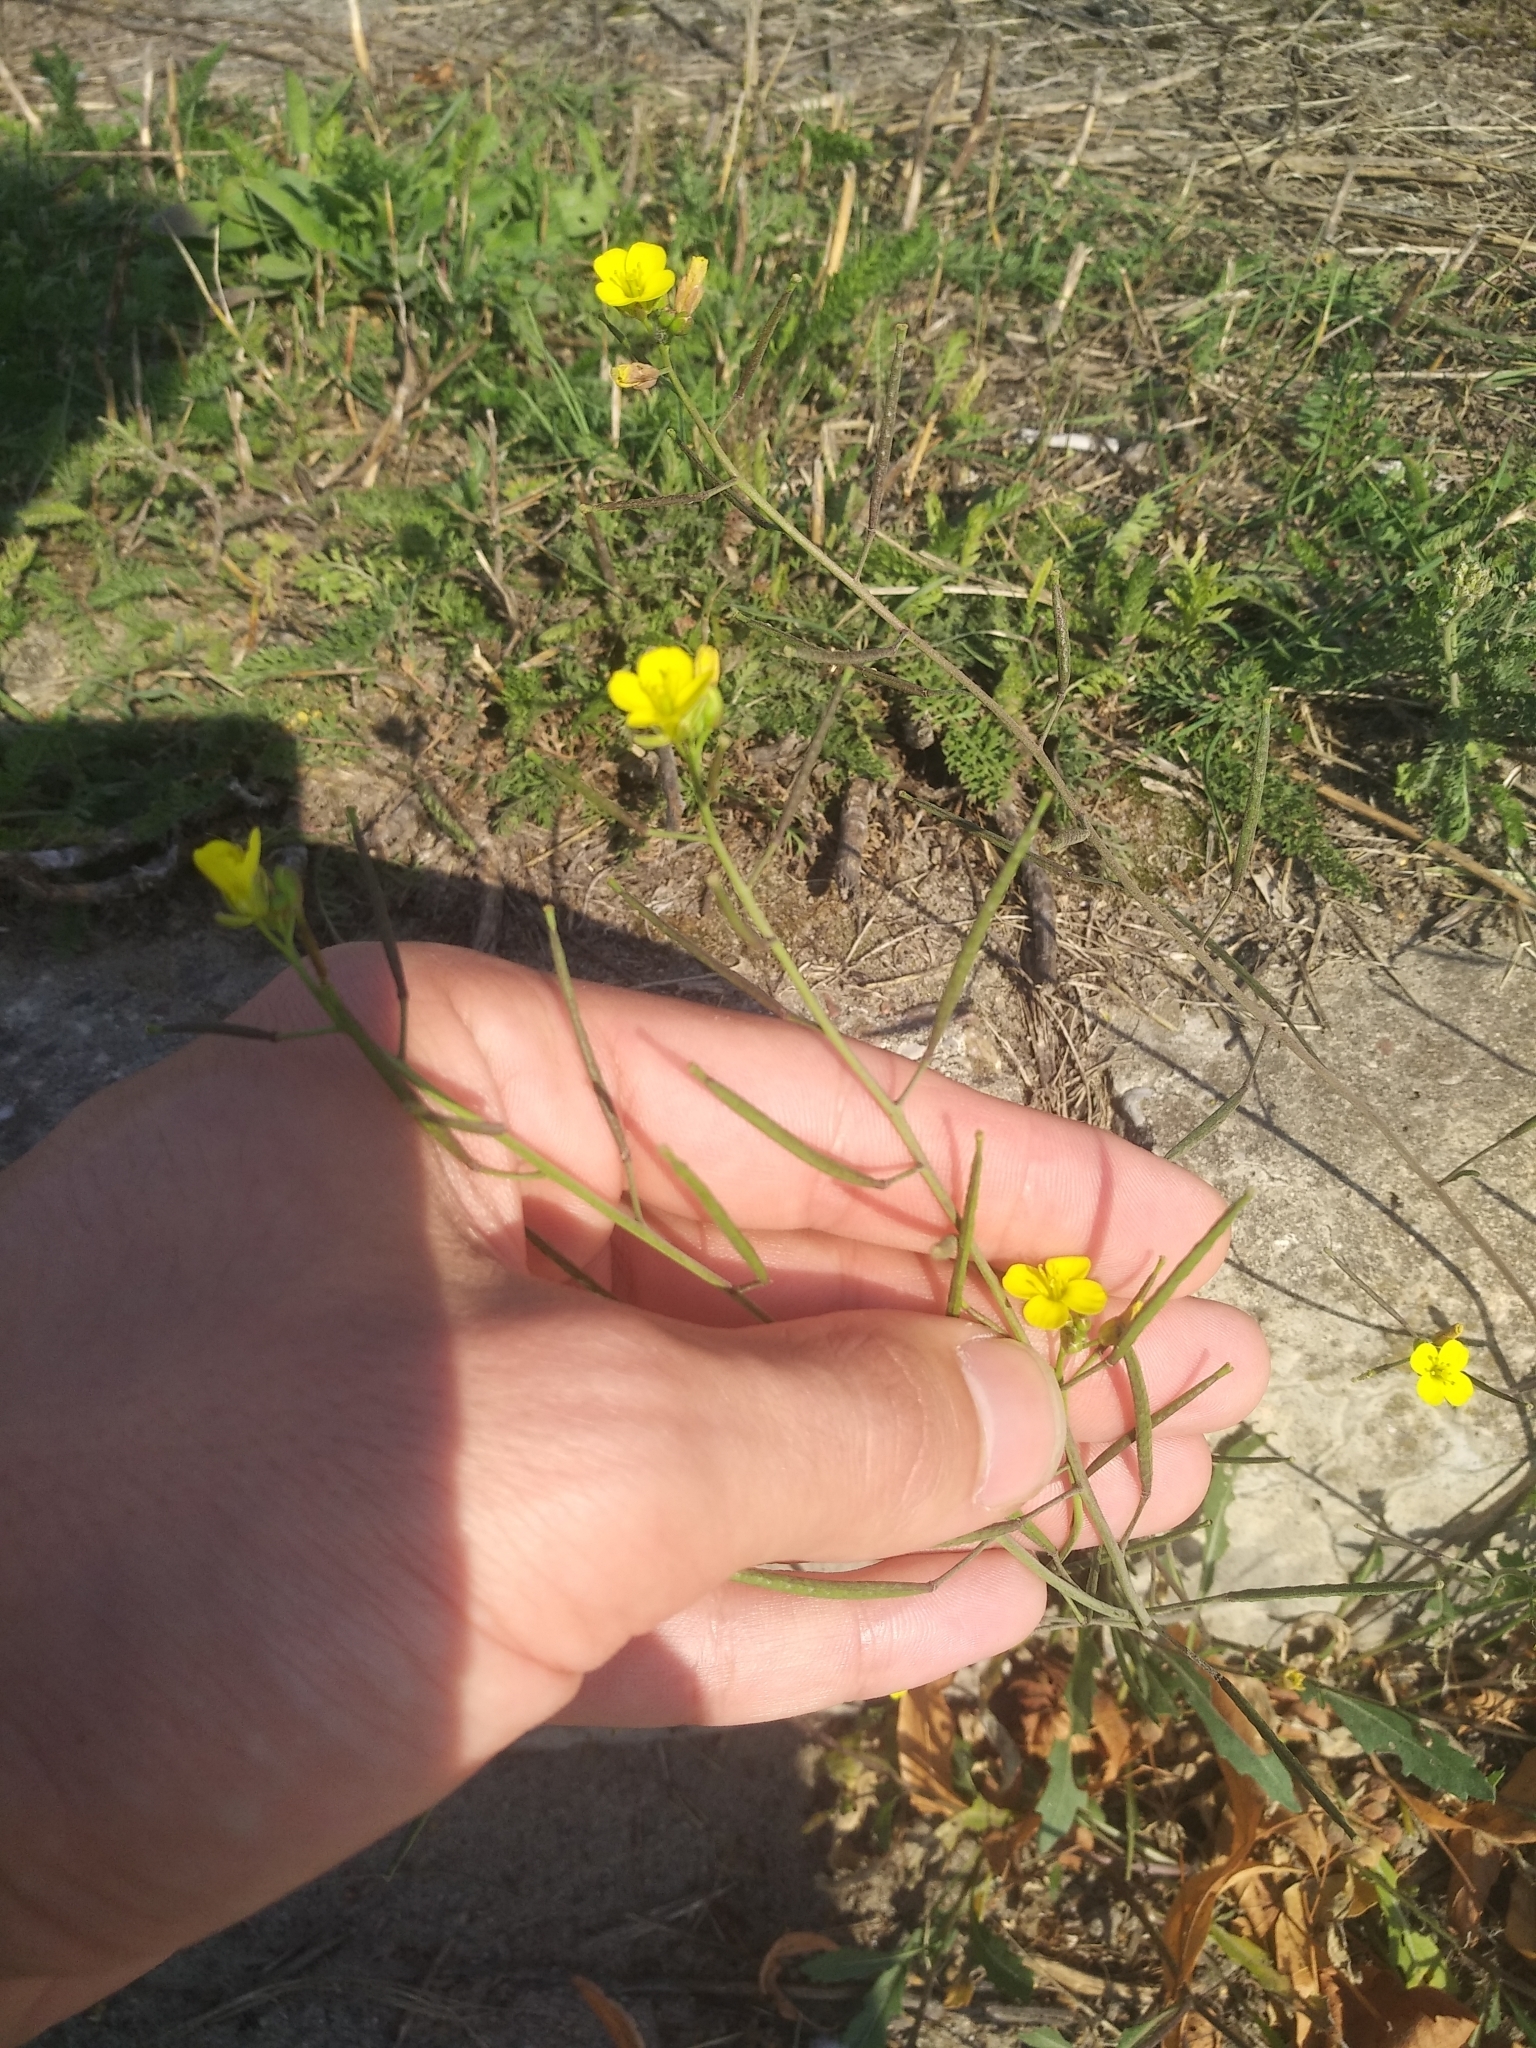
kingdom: Plantae
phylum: Tracheophyta
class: Magnoliopsida
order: Brassicales
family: Brassicaceae
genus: Diplotaxis
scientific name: Diplotaxis muralis
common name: Annual wall-rocket
